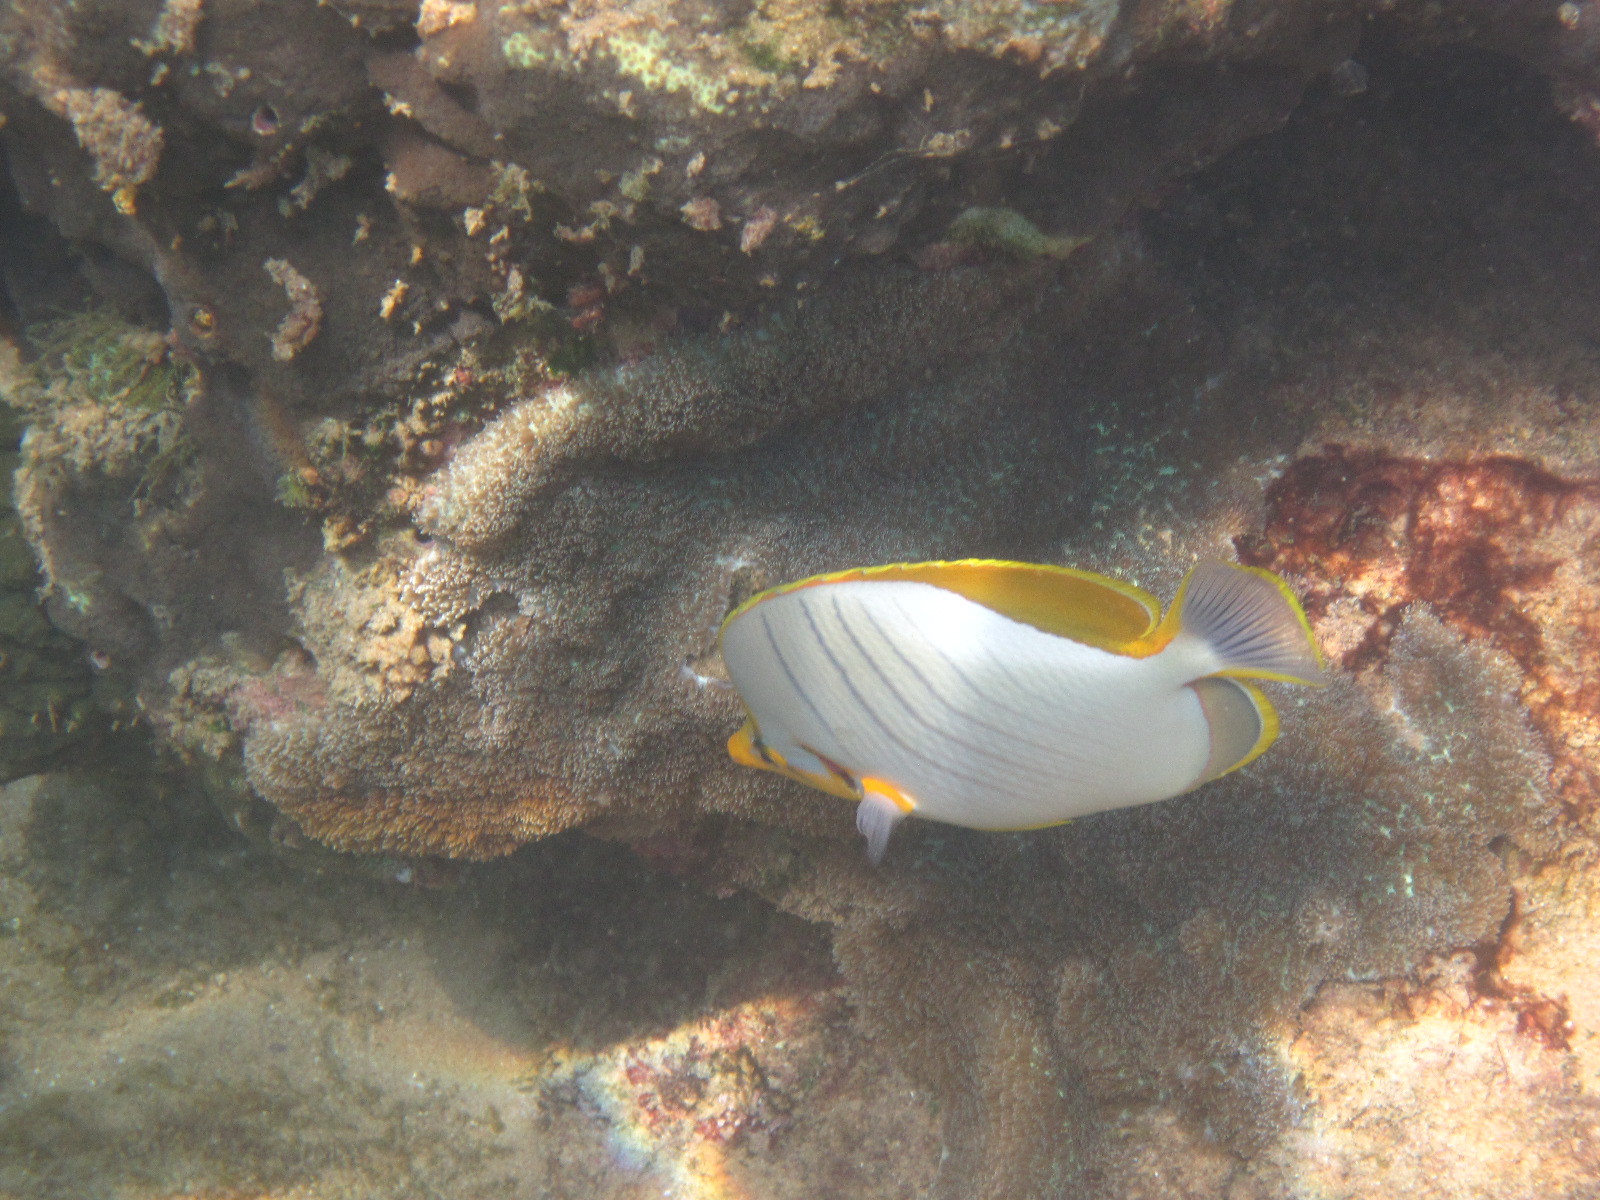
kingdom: Animalia
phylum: Chordata
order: Perciformes
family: Chaetodontidae
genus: Chaetodon
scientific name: Chaetodon xanthocephalus
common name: Yellowhead butterflyfish
